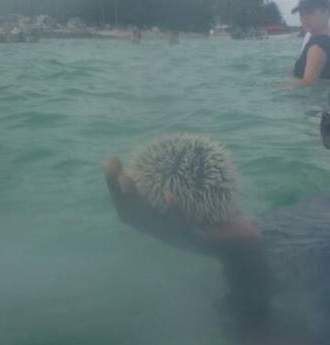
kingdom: Animalia
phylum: Echinodermata
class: Echinoidea
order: Camarodonta
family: Toxopneustidae
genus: Tripneustes
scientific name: Tripneustes ventricosus
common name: West indian sea egg
